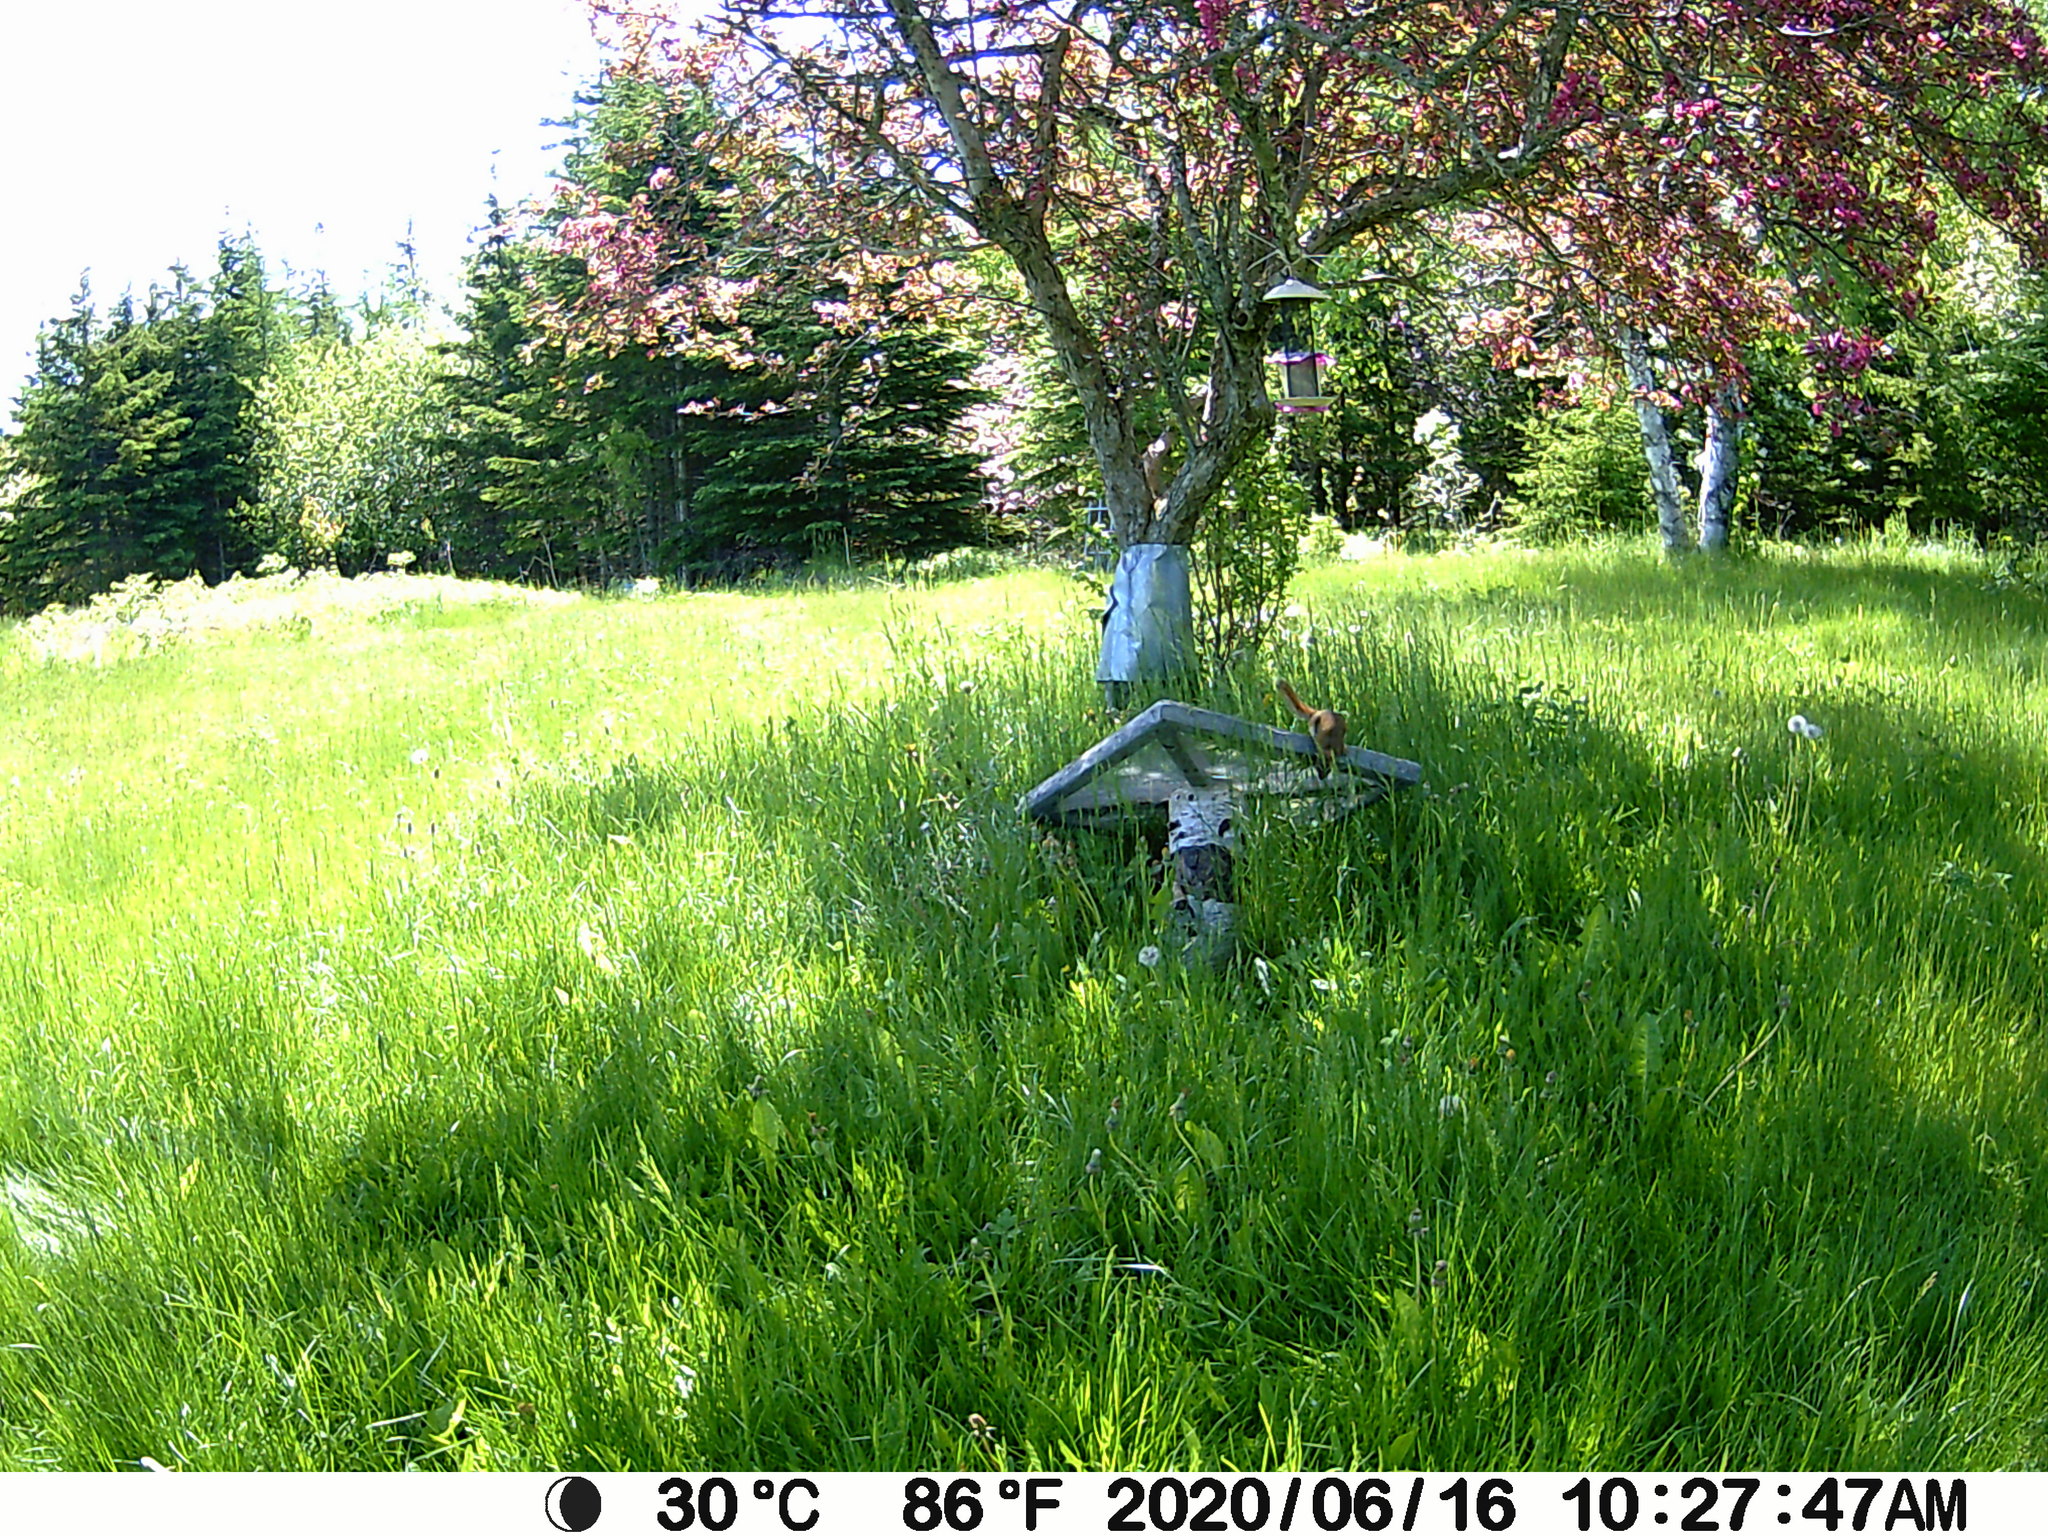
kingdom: Animalia
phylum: Chordata
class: Mammalia
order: Rodentia
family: Sciuridae
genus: Tamiasciurus
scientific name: Tamiasciurus hudsonicus
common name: Red squirrel
